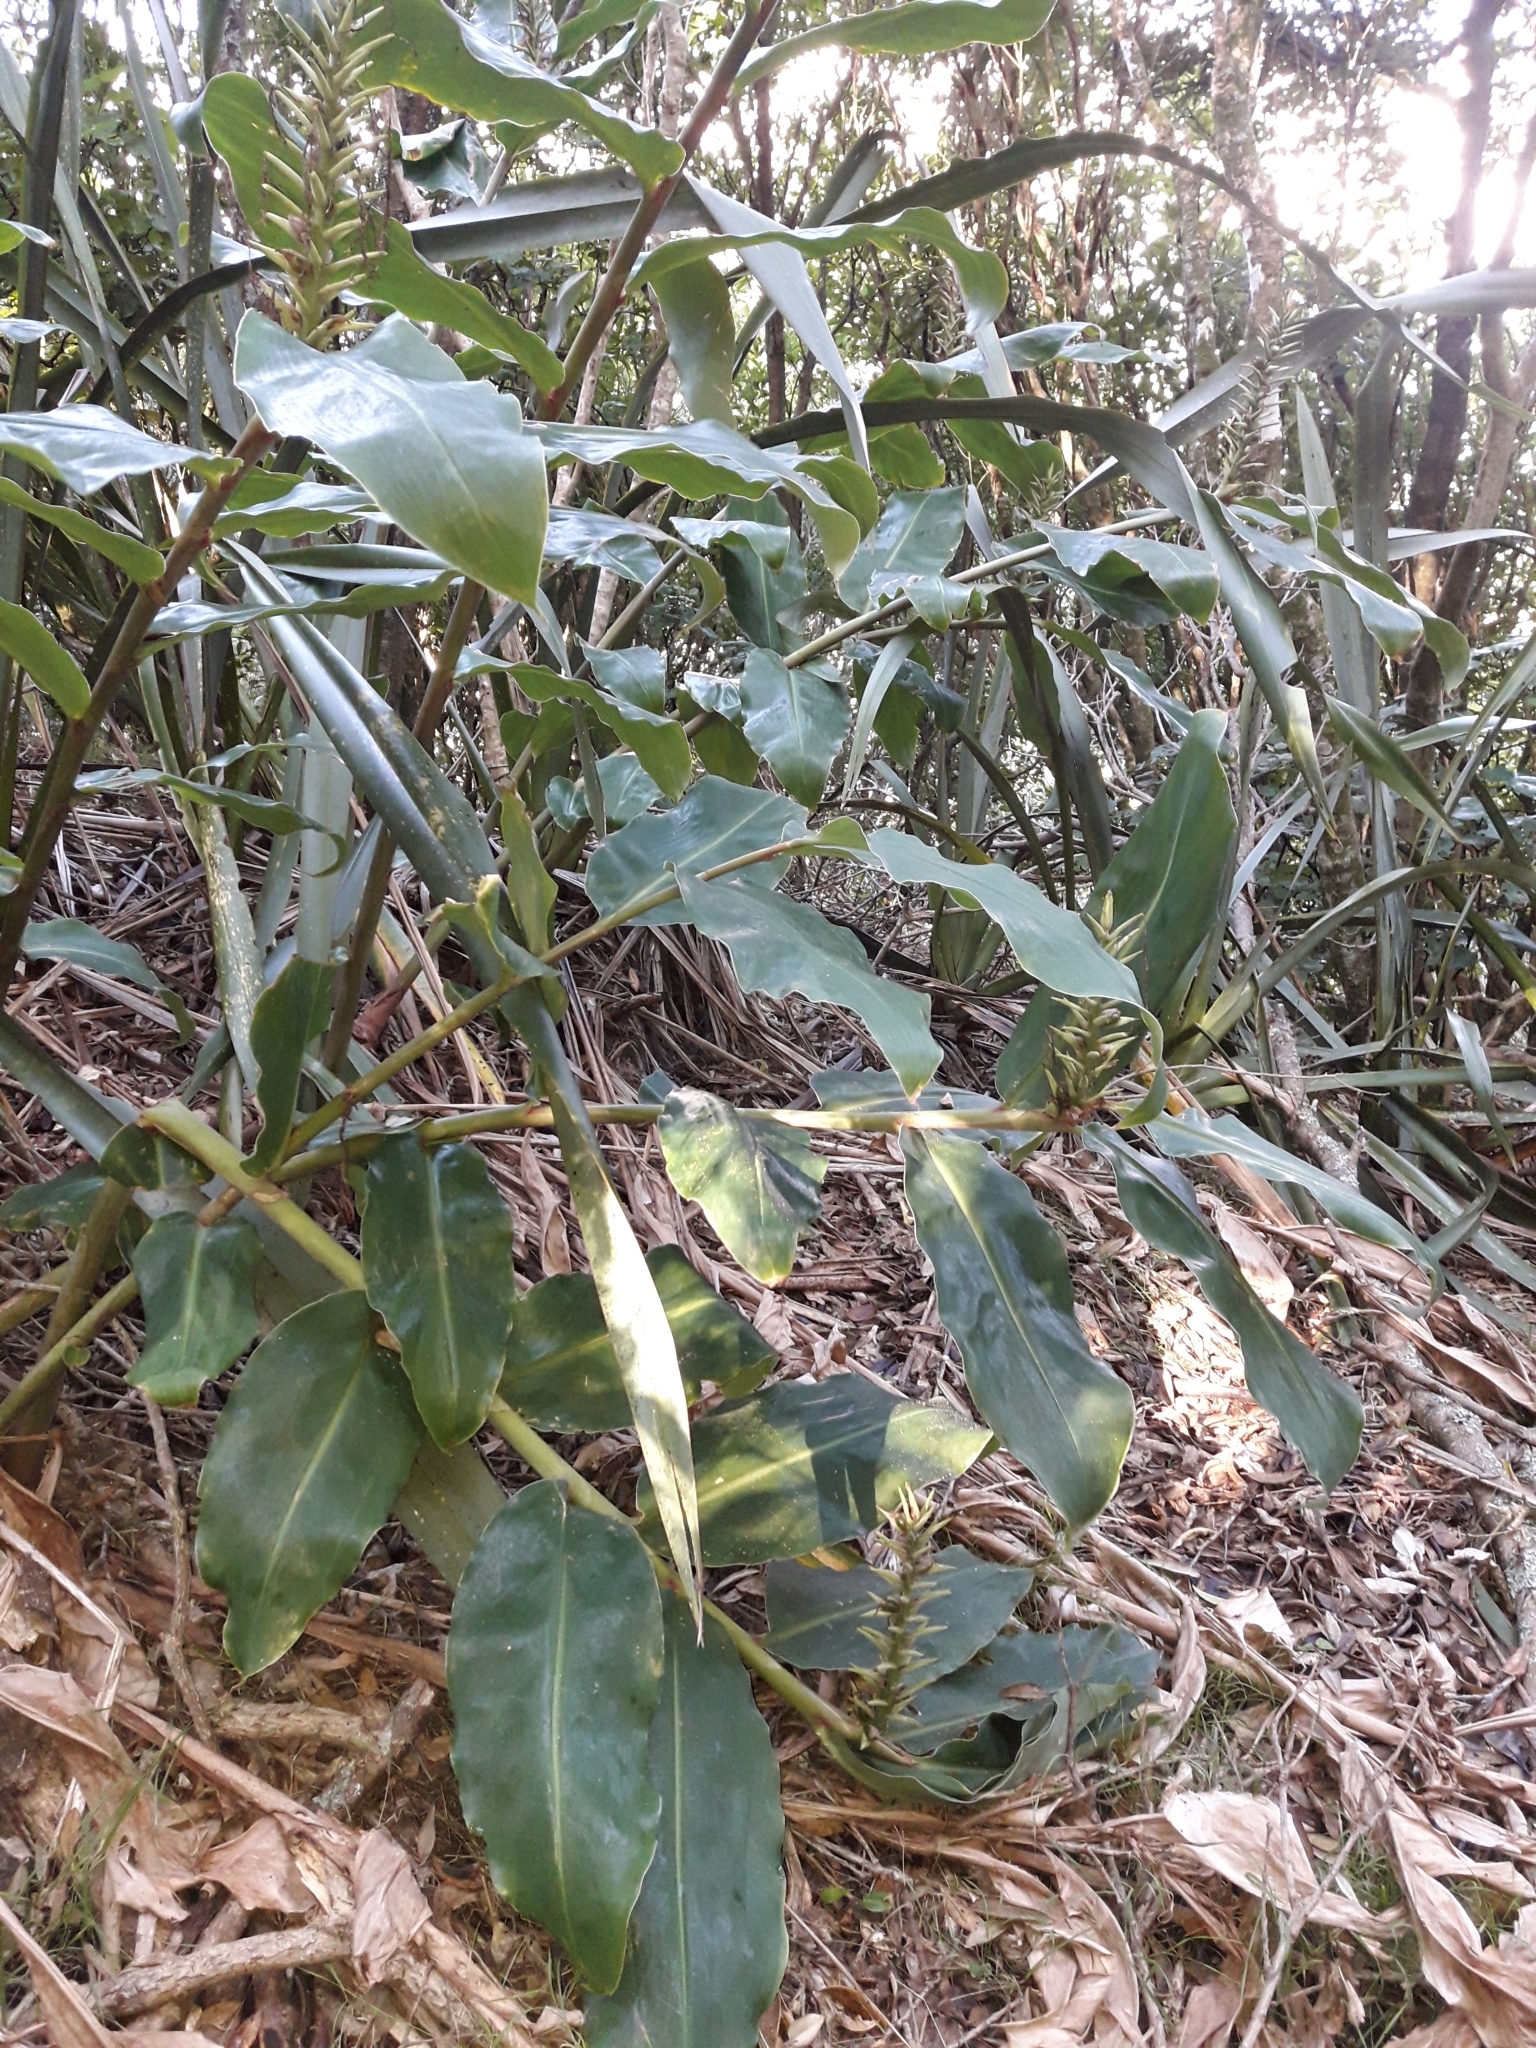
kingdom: Plantae
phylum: Tracheophyta
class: Liliopsida
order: Zingiberales
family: Zingiberaceae
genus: Hedychium
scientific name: Hedychium gardnerianum
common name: Himalayan ginger
